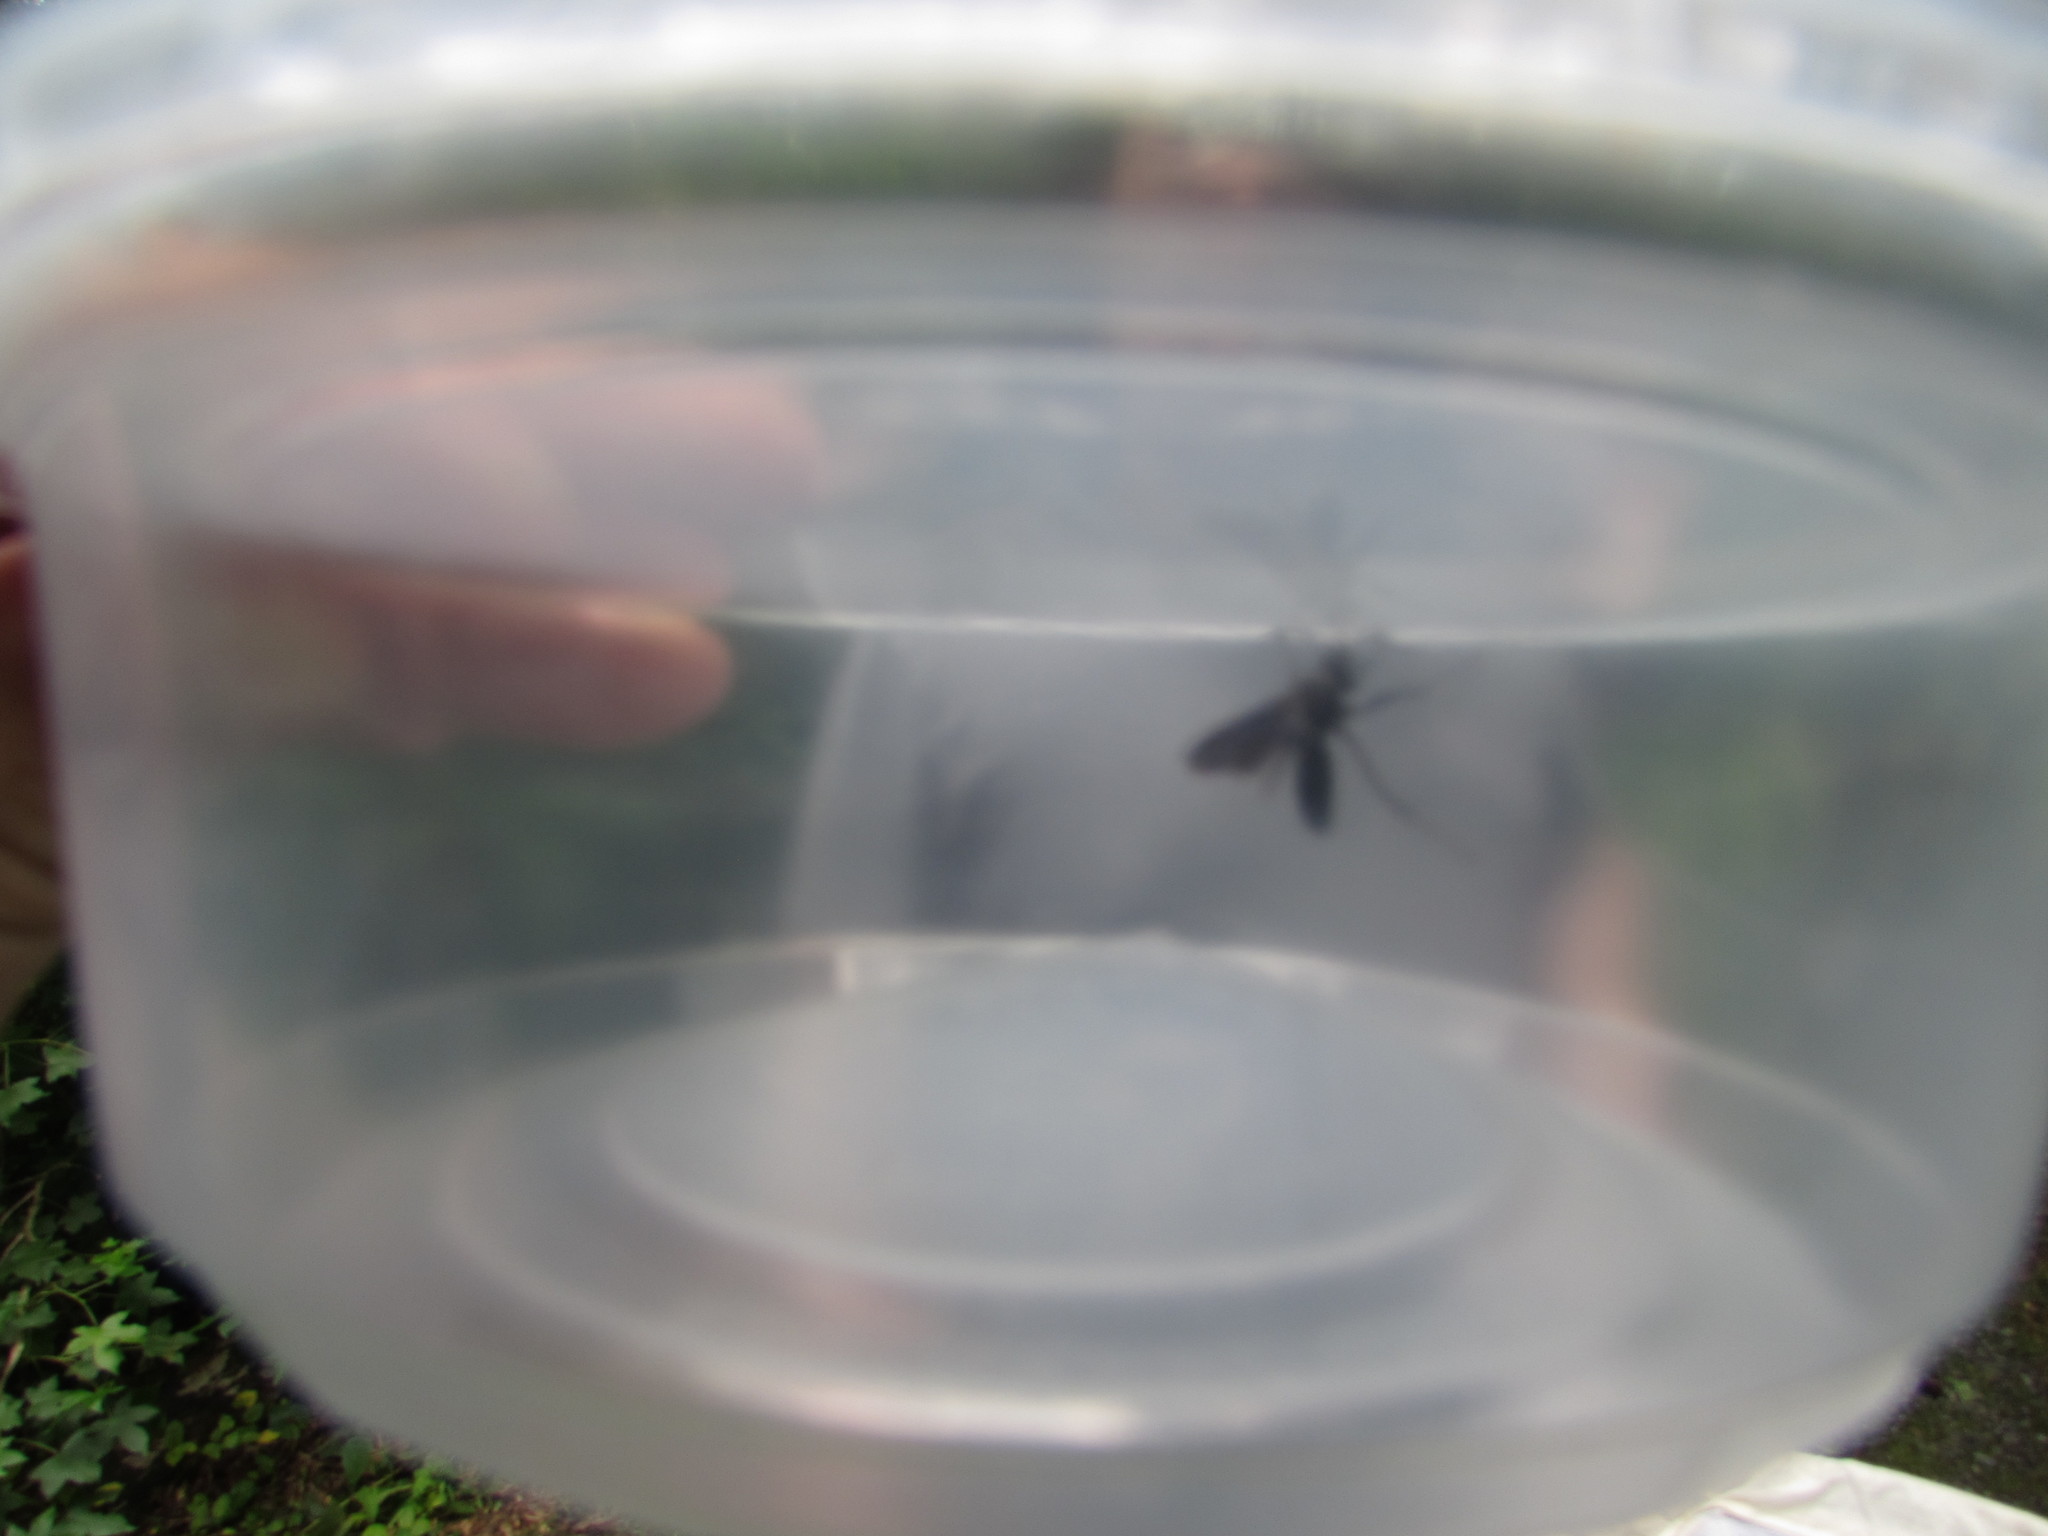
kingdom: Animalia
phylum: Arthropoda
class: Insecta
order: Hymenoptera
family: Sphecidae
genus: Sphex
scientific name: Sphex pensylvanicus
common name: Great black digger wasp
